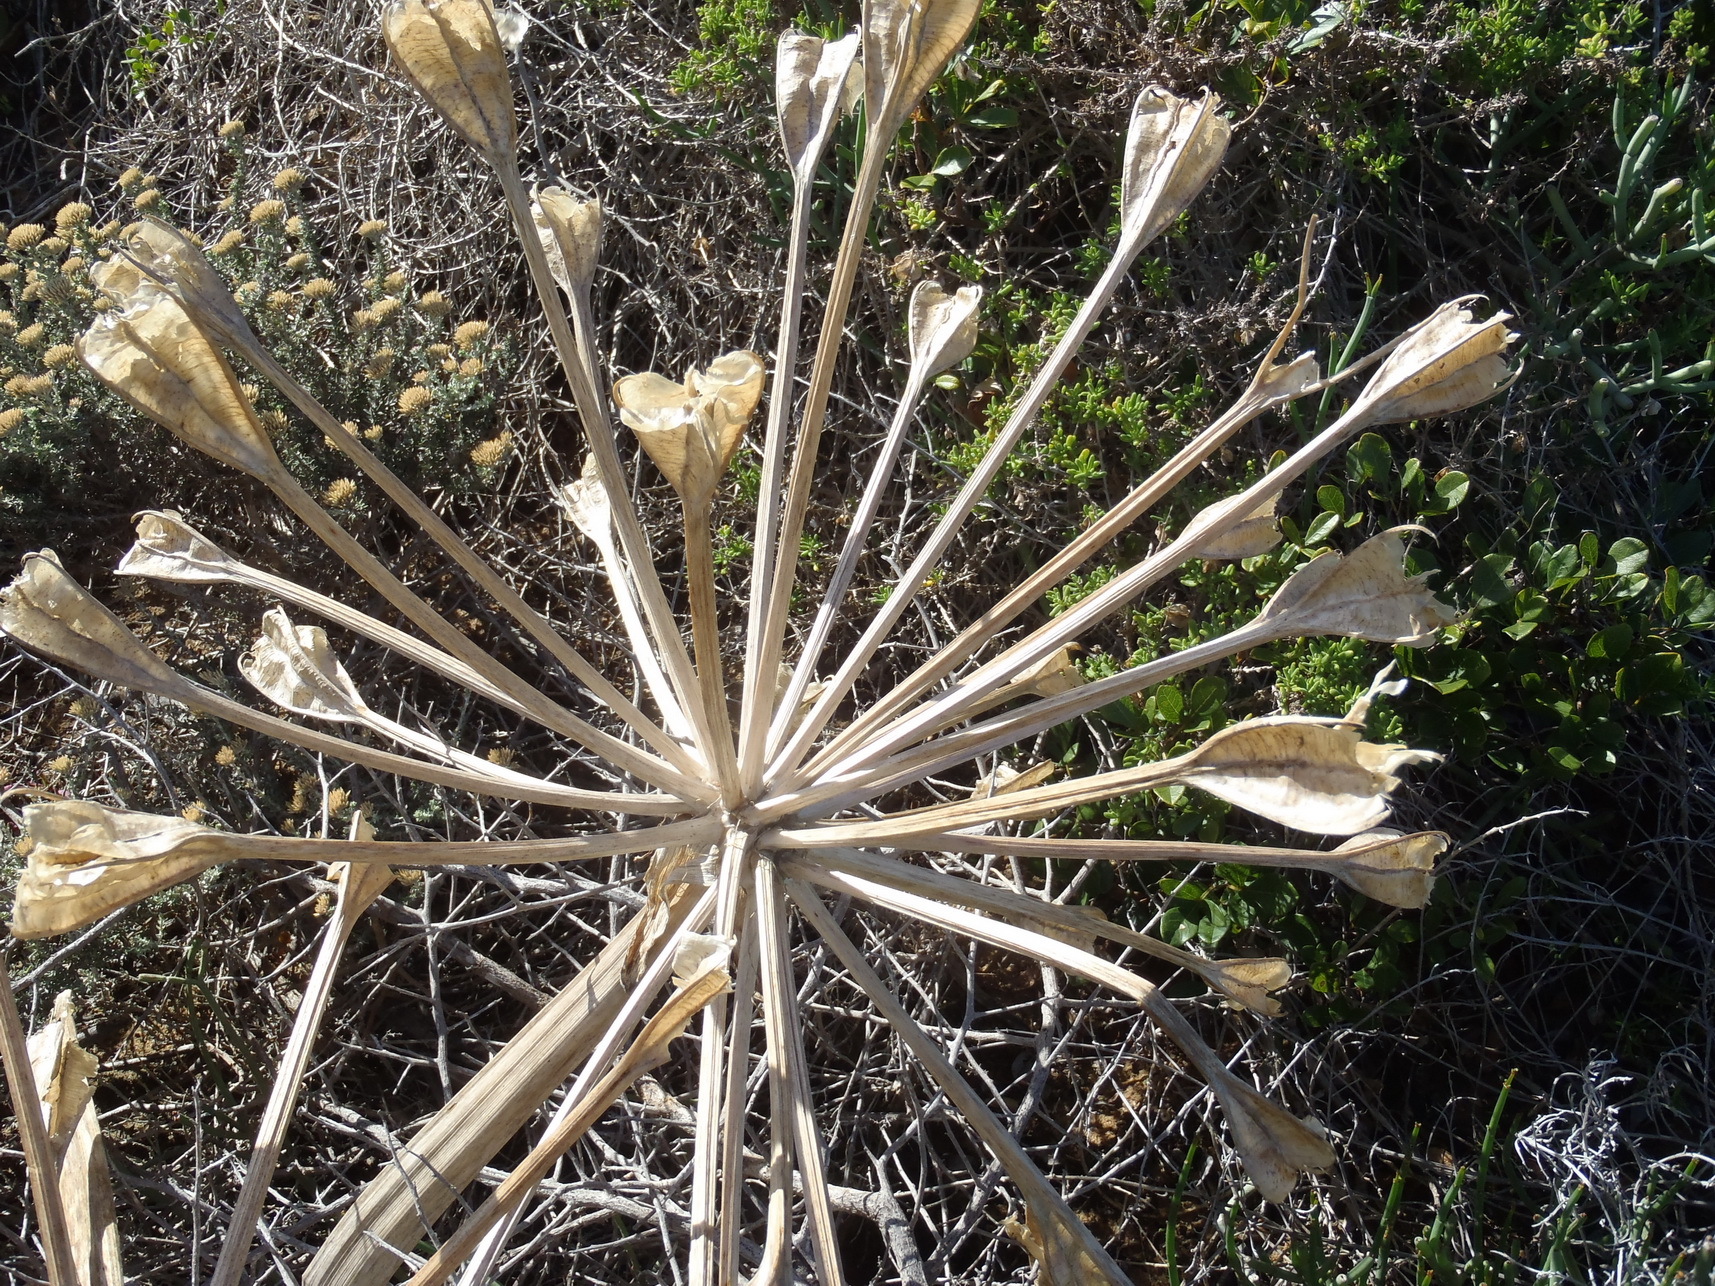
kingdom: Plantae
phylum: Tracheophyta
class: Liliopsida
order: Asparagales
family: Amaryllidaceae
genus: Brunsvigia
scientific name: Brunsvigia orientalis
